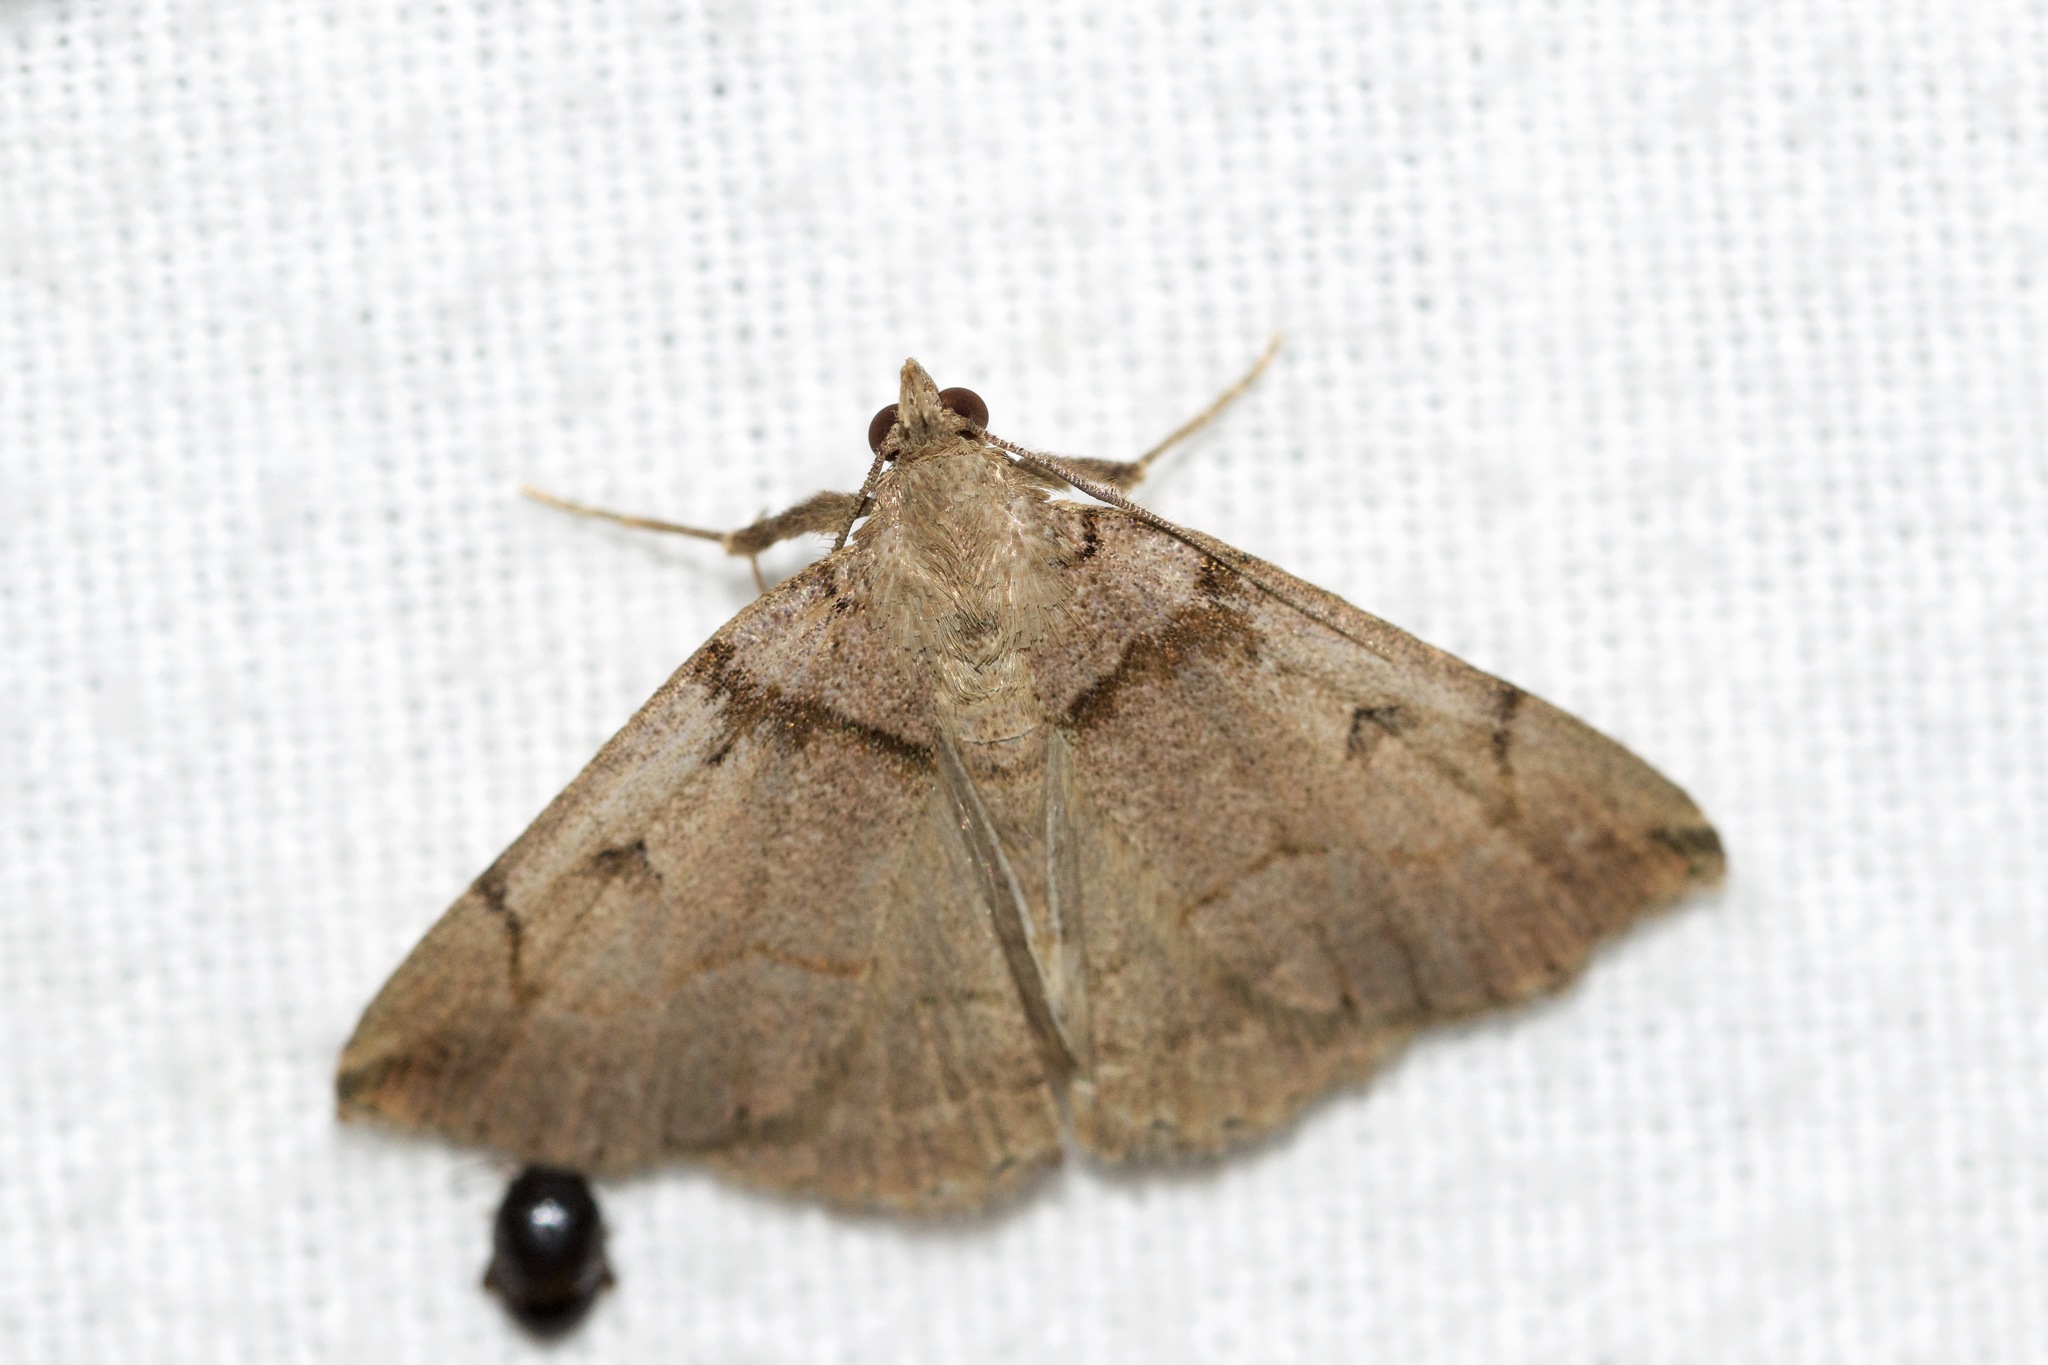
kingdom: Animalia
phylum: Arthropoda
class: Insecta
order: Lepidoptera
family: Erebidae
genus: Zanclognatha
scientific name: Zanclognatha laevigata
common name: Variable fan-foot
